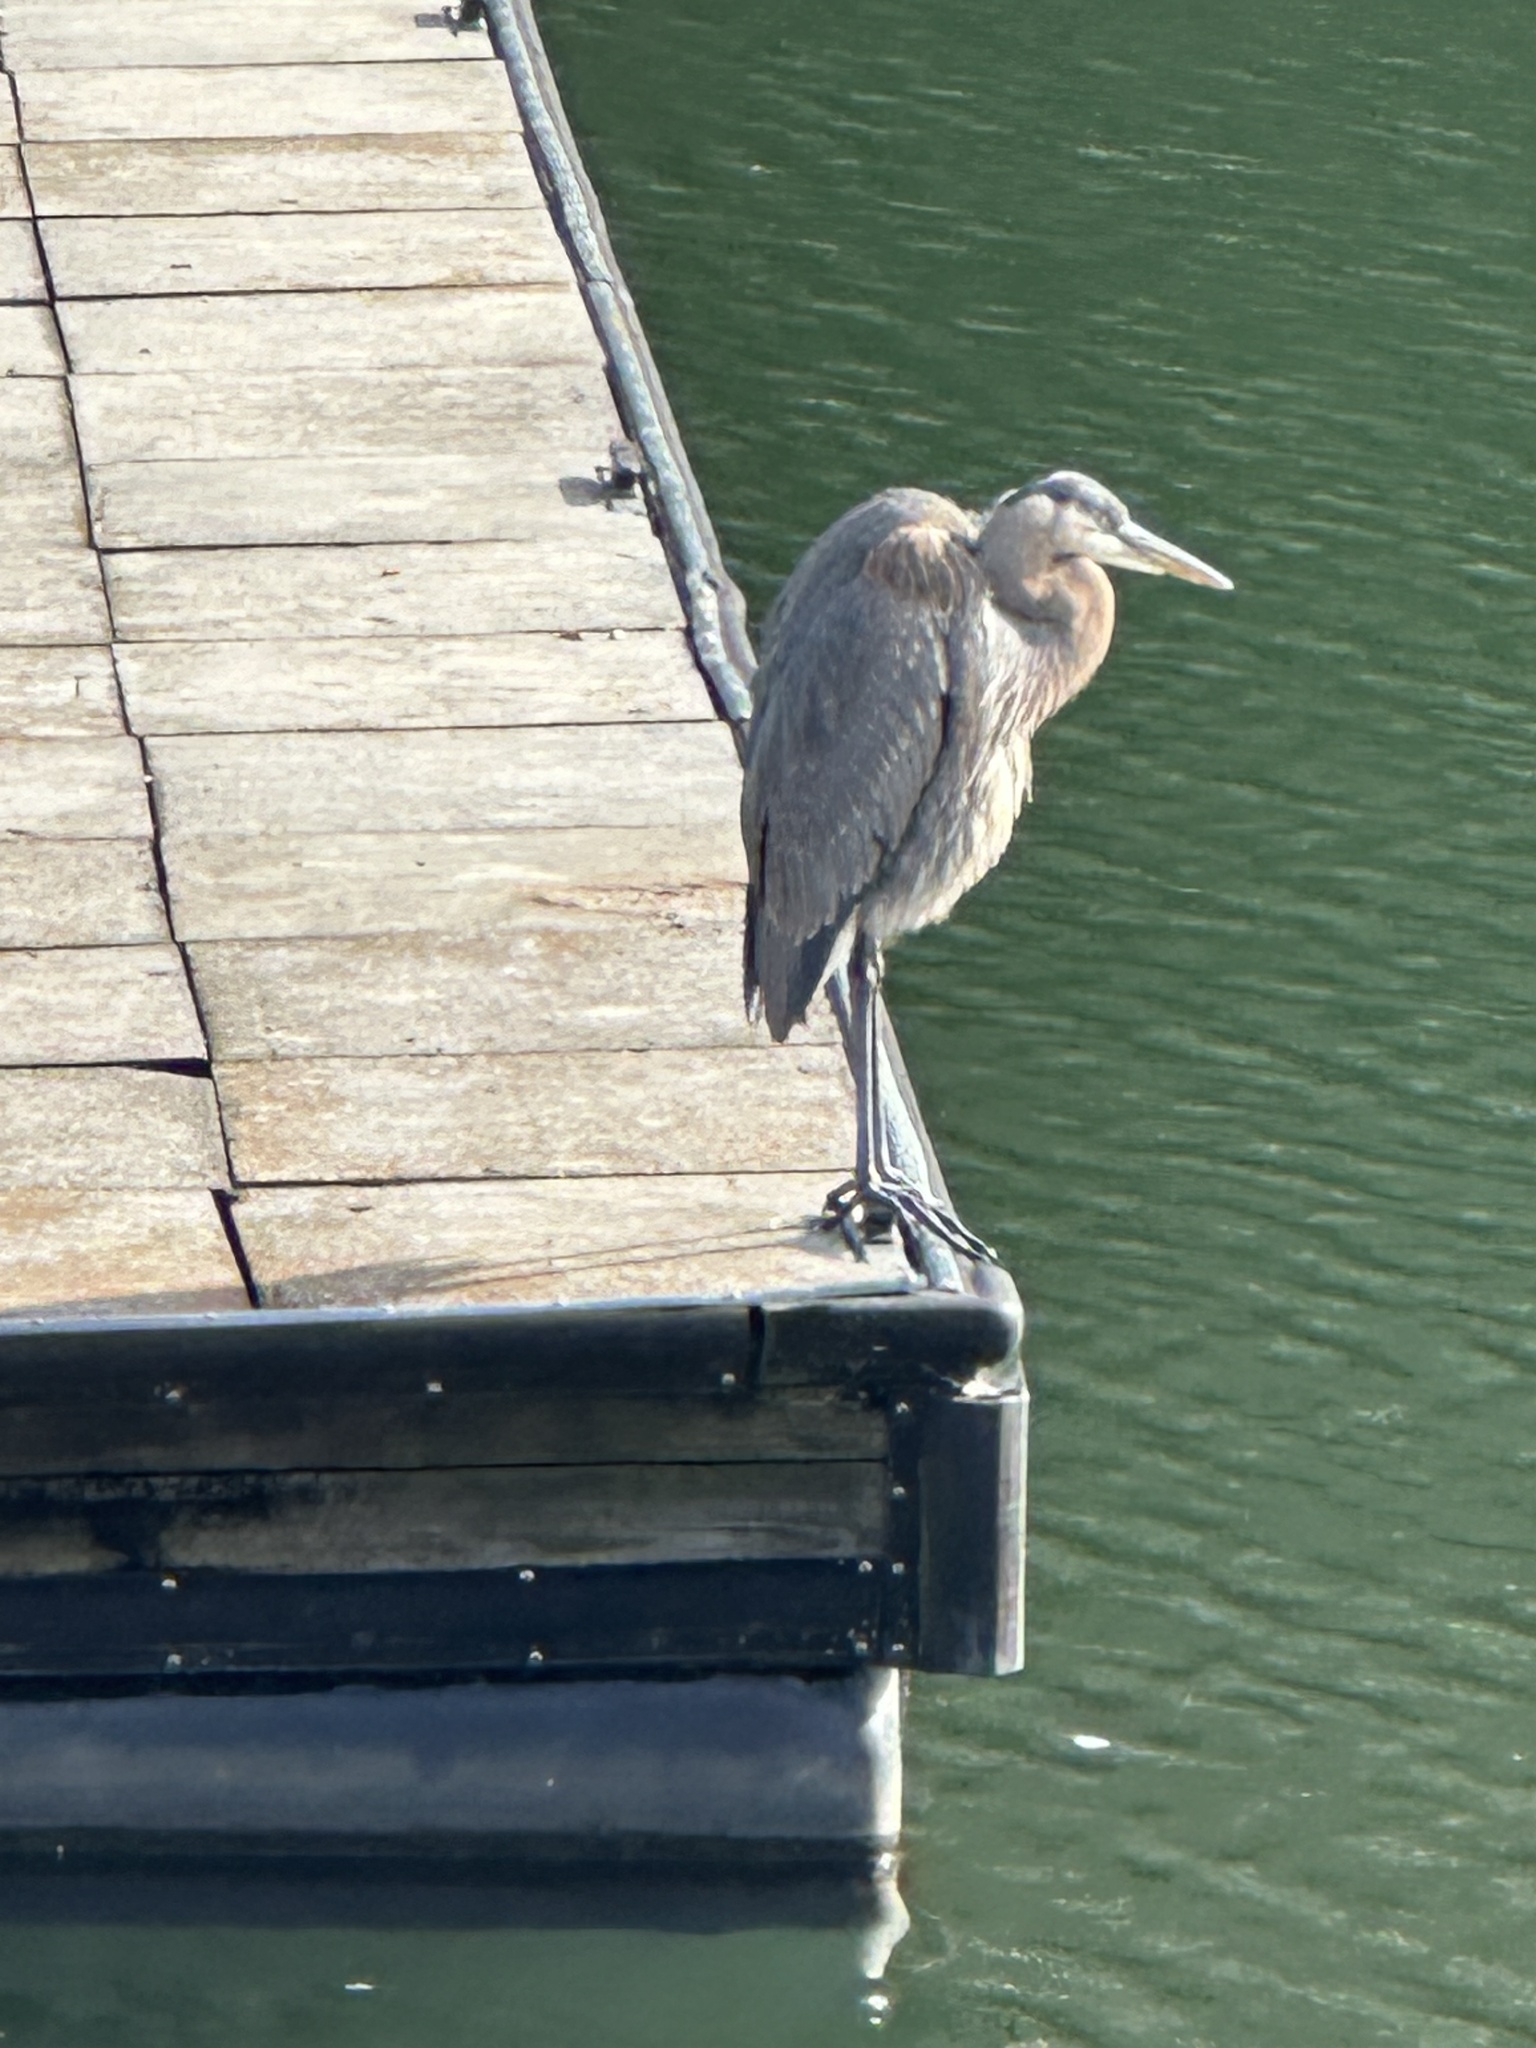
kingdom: Animalia
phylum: Chordata
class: Aves
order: Pelecaniformes
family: Ardeidae
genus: Ardea
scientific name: Ardea herodias
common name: Great blue heron
